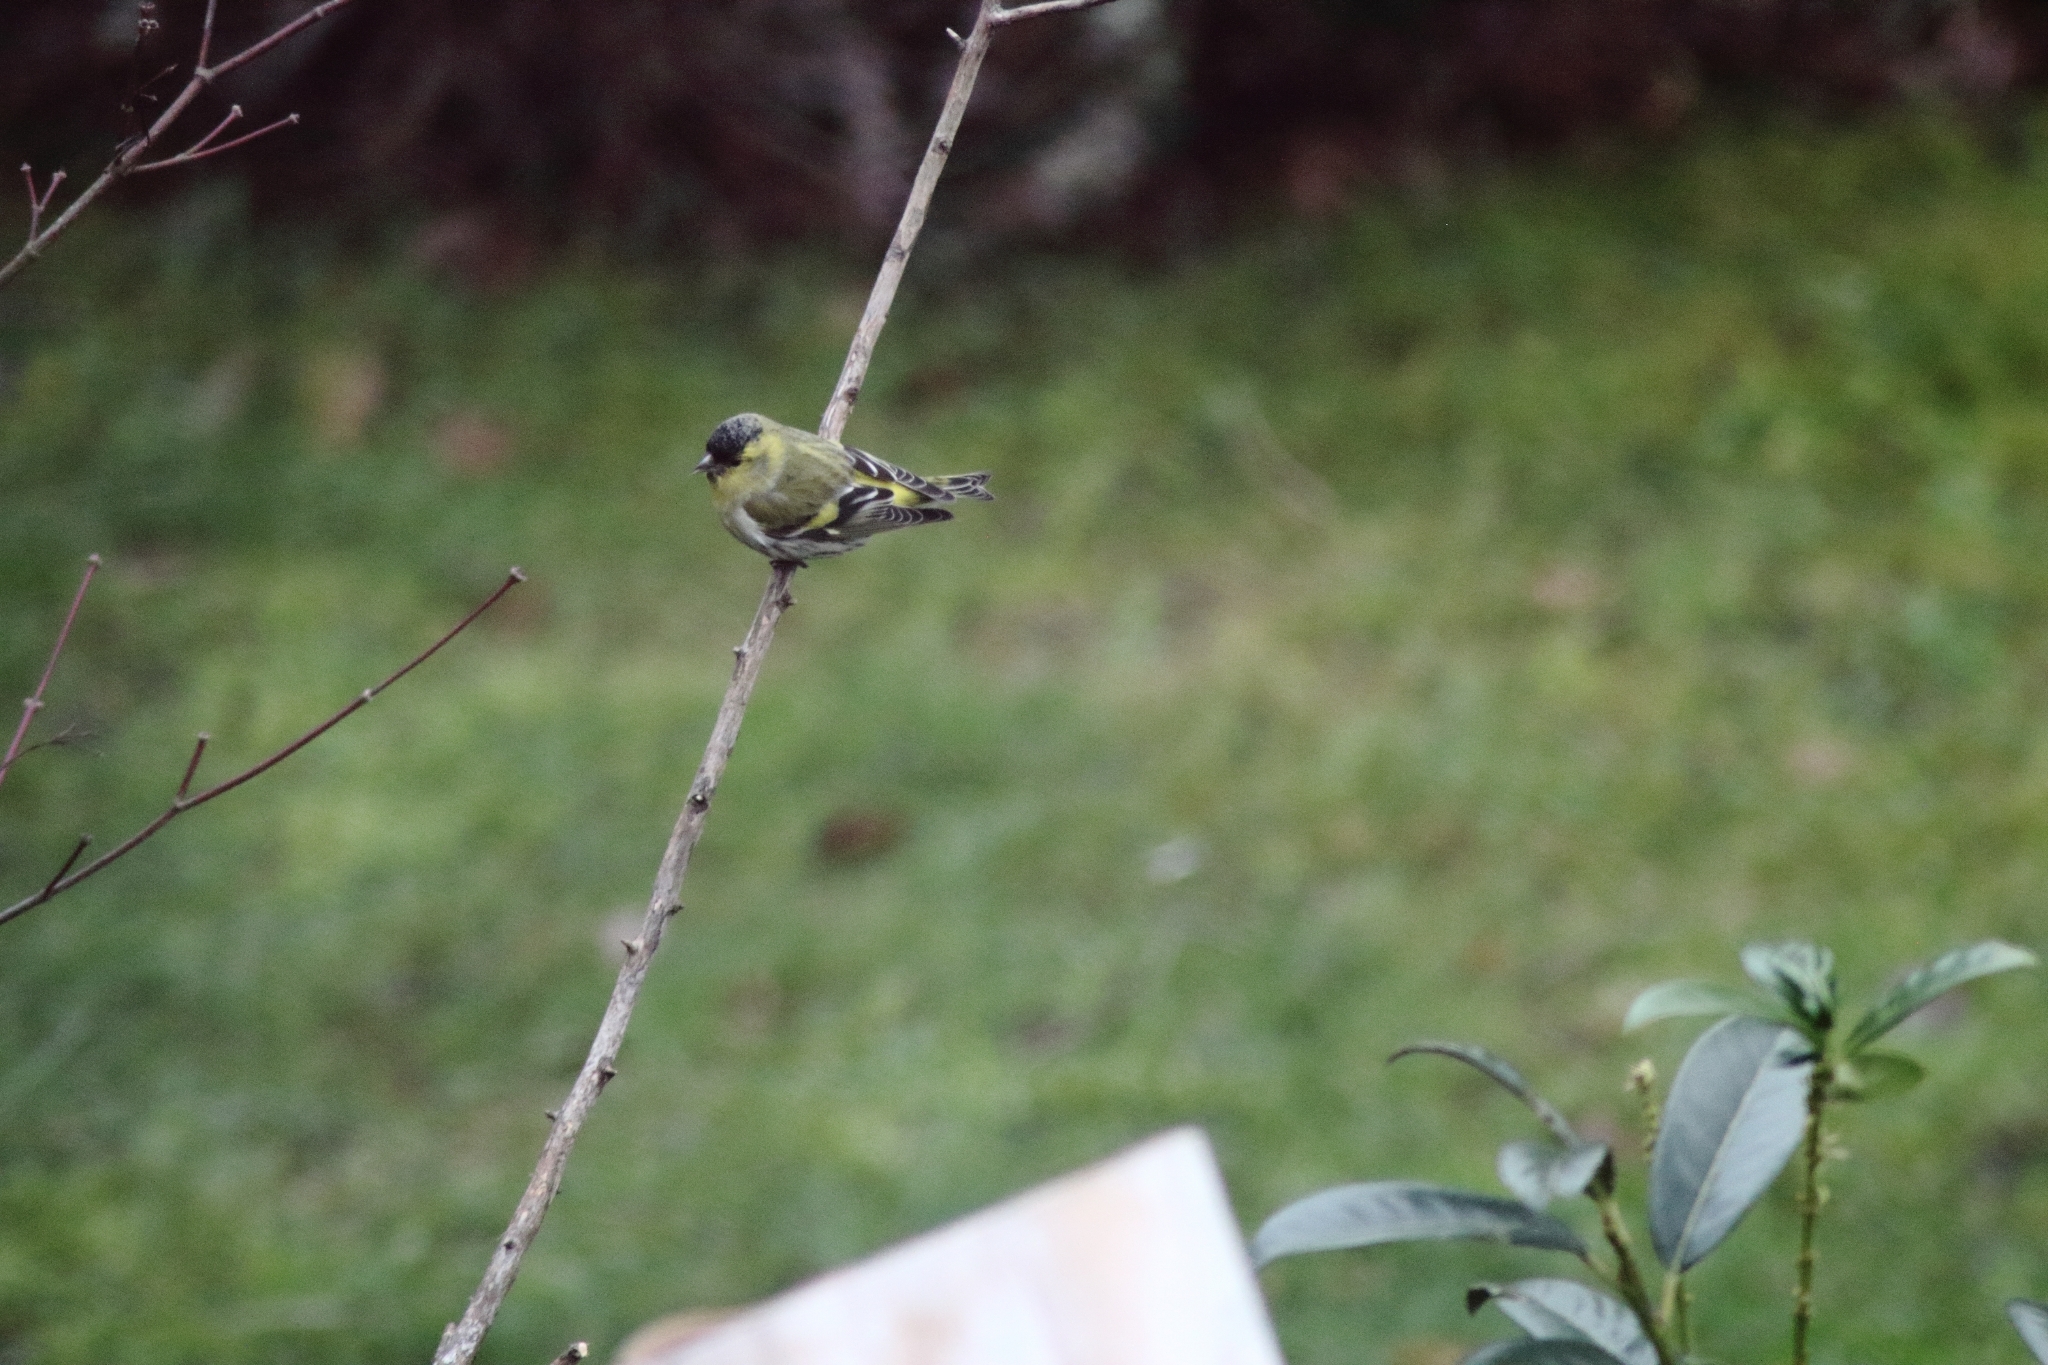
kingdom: Animalia
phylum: Chordata
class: Aves
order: Passeriformes
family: Fringillidae
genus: Spinus
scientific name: Spinus spinus
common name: Eurasian siskin
